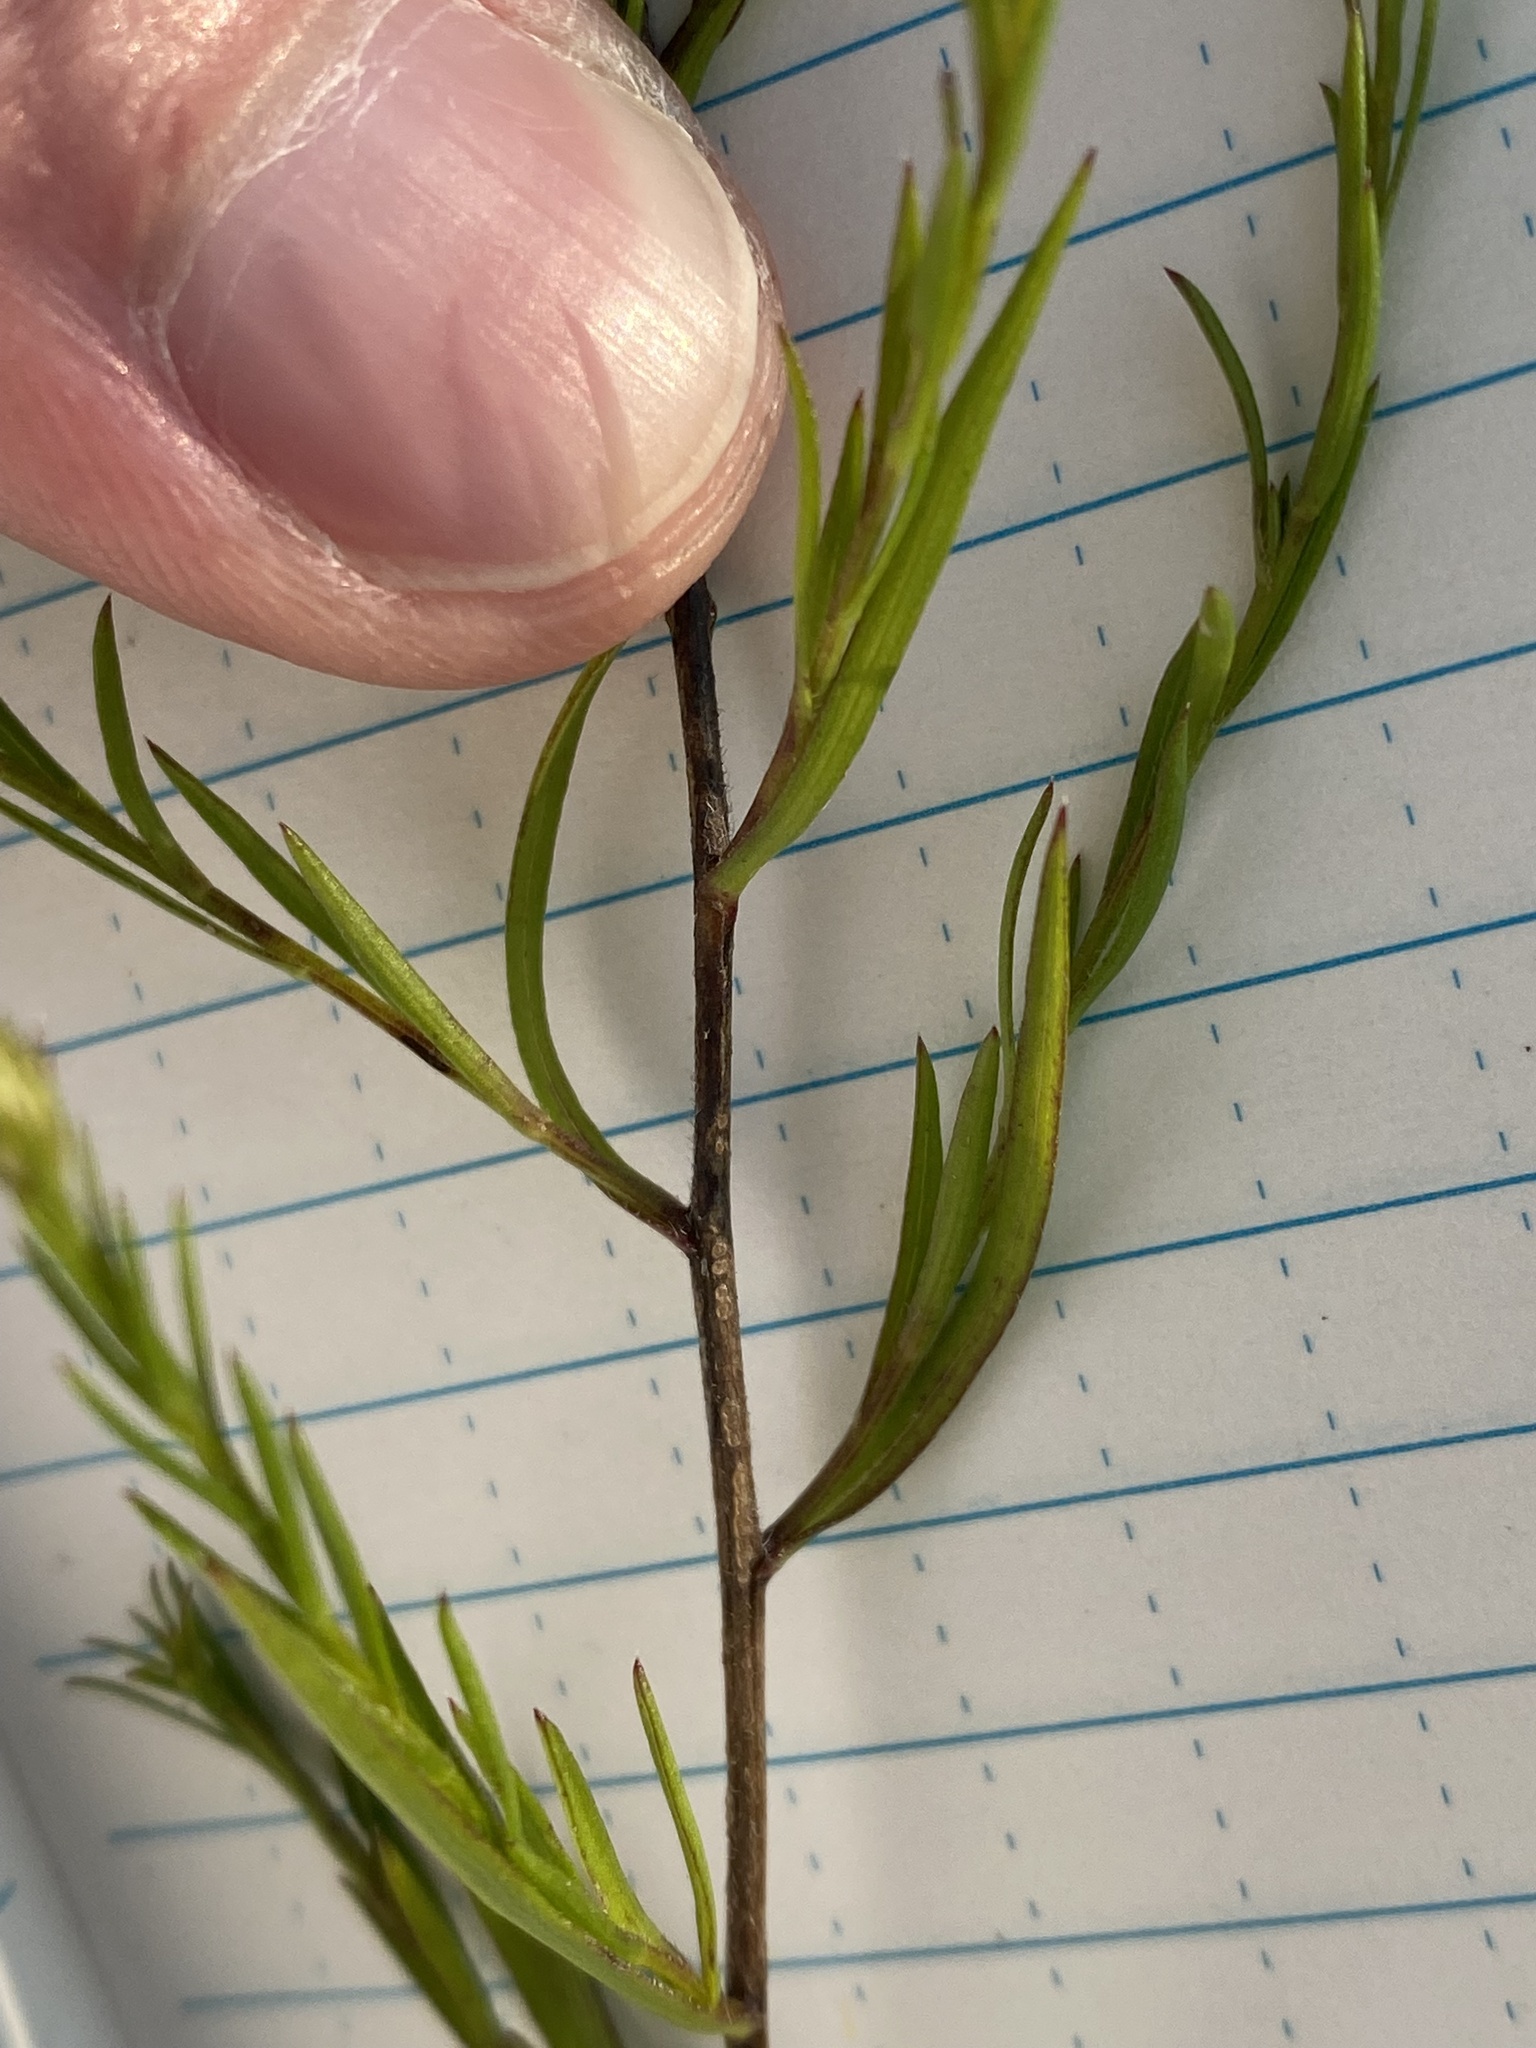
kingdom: Plantae
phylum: Tracheophyta
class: Magnoliopsida
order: Asterales
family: Asteraceae
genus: Symphyotrichum
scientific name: Symphyotrichum pilosum
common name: Awl aster
